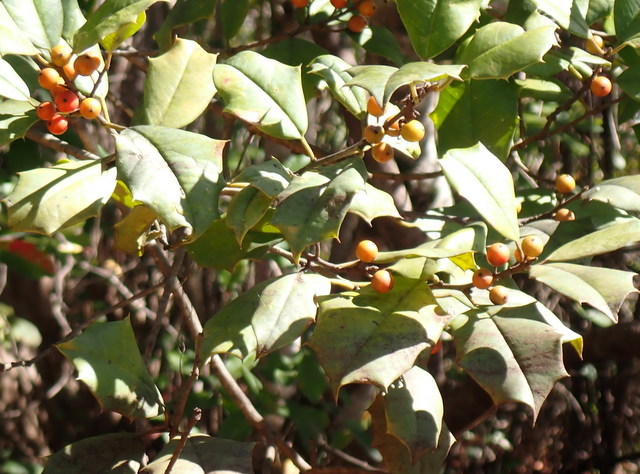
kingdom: Plantae
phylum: Tracheophyta
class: Magnoliopsida
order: Aquifoliales
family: Aquifoliaceae
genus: Ilex
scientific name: Ilex opaca
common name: American holly
